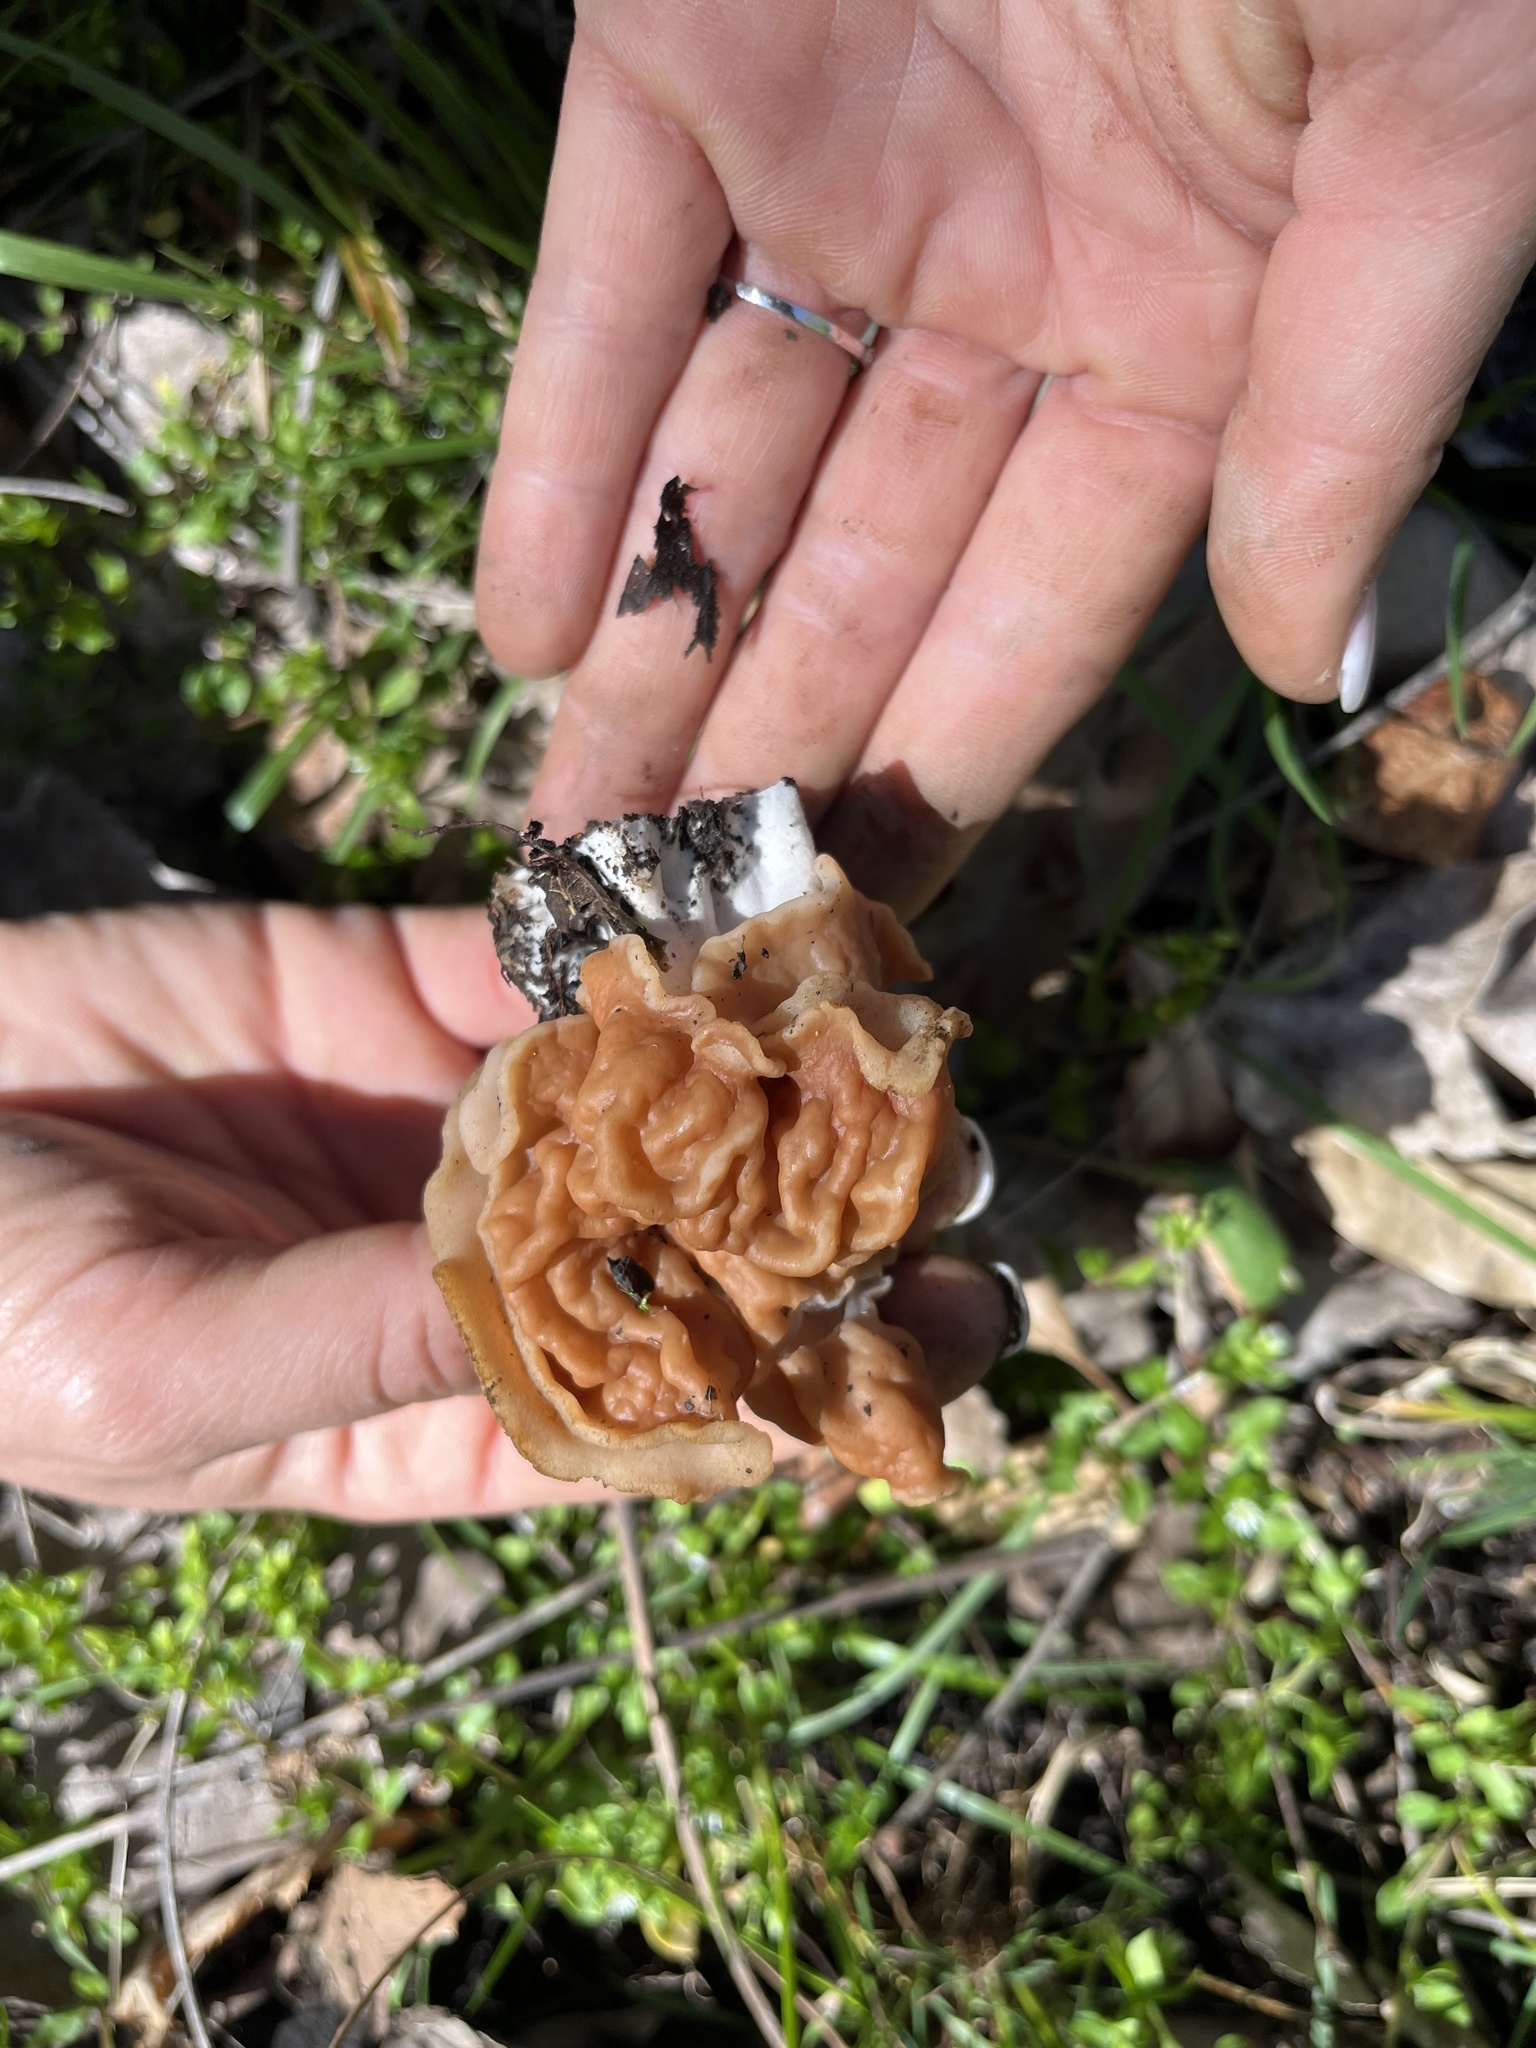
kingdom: Fungi
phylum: Ascomycota
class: Pezizomycetes
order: Pezizales
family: Discinaceae
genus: Discina
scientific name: Discina brunnea
